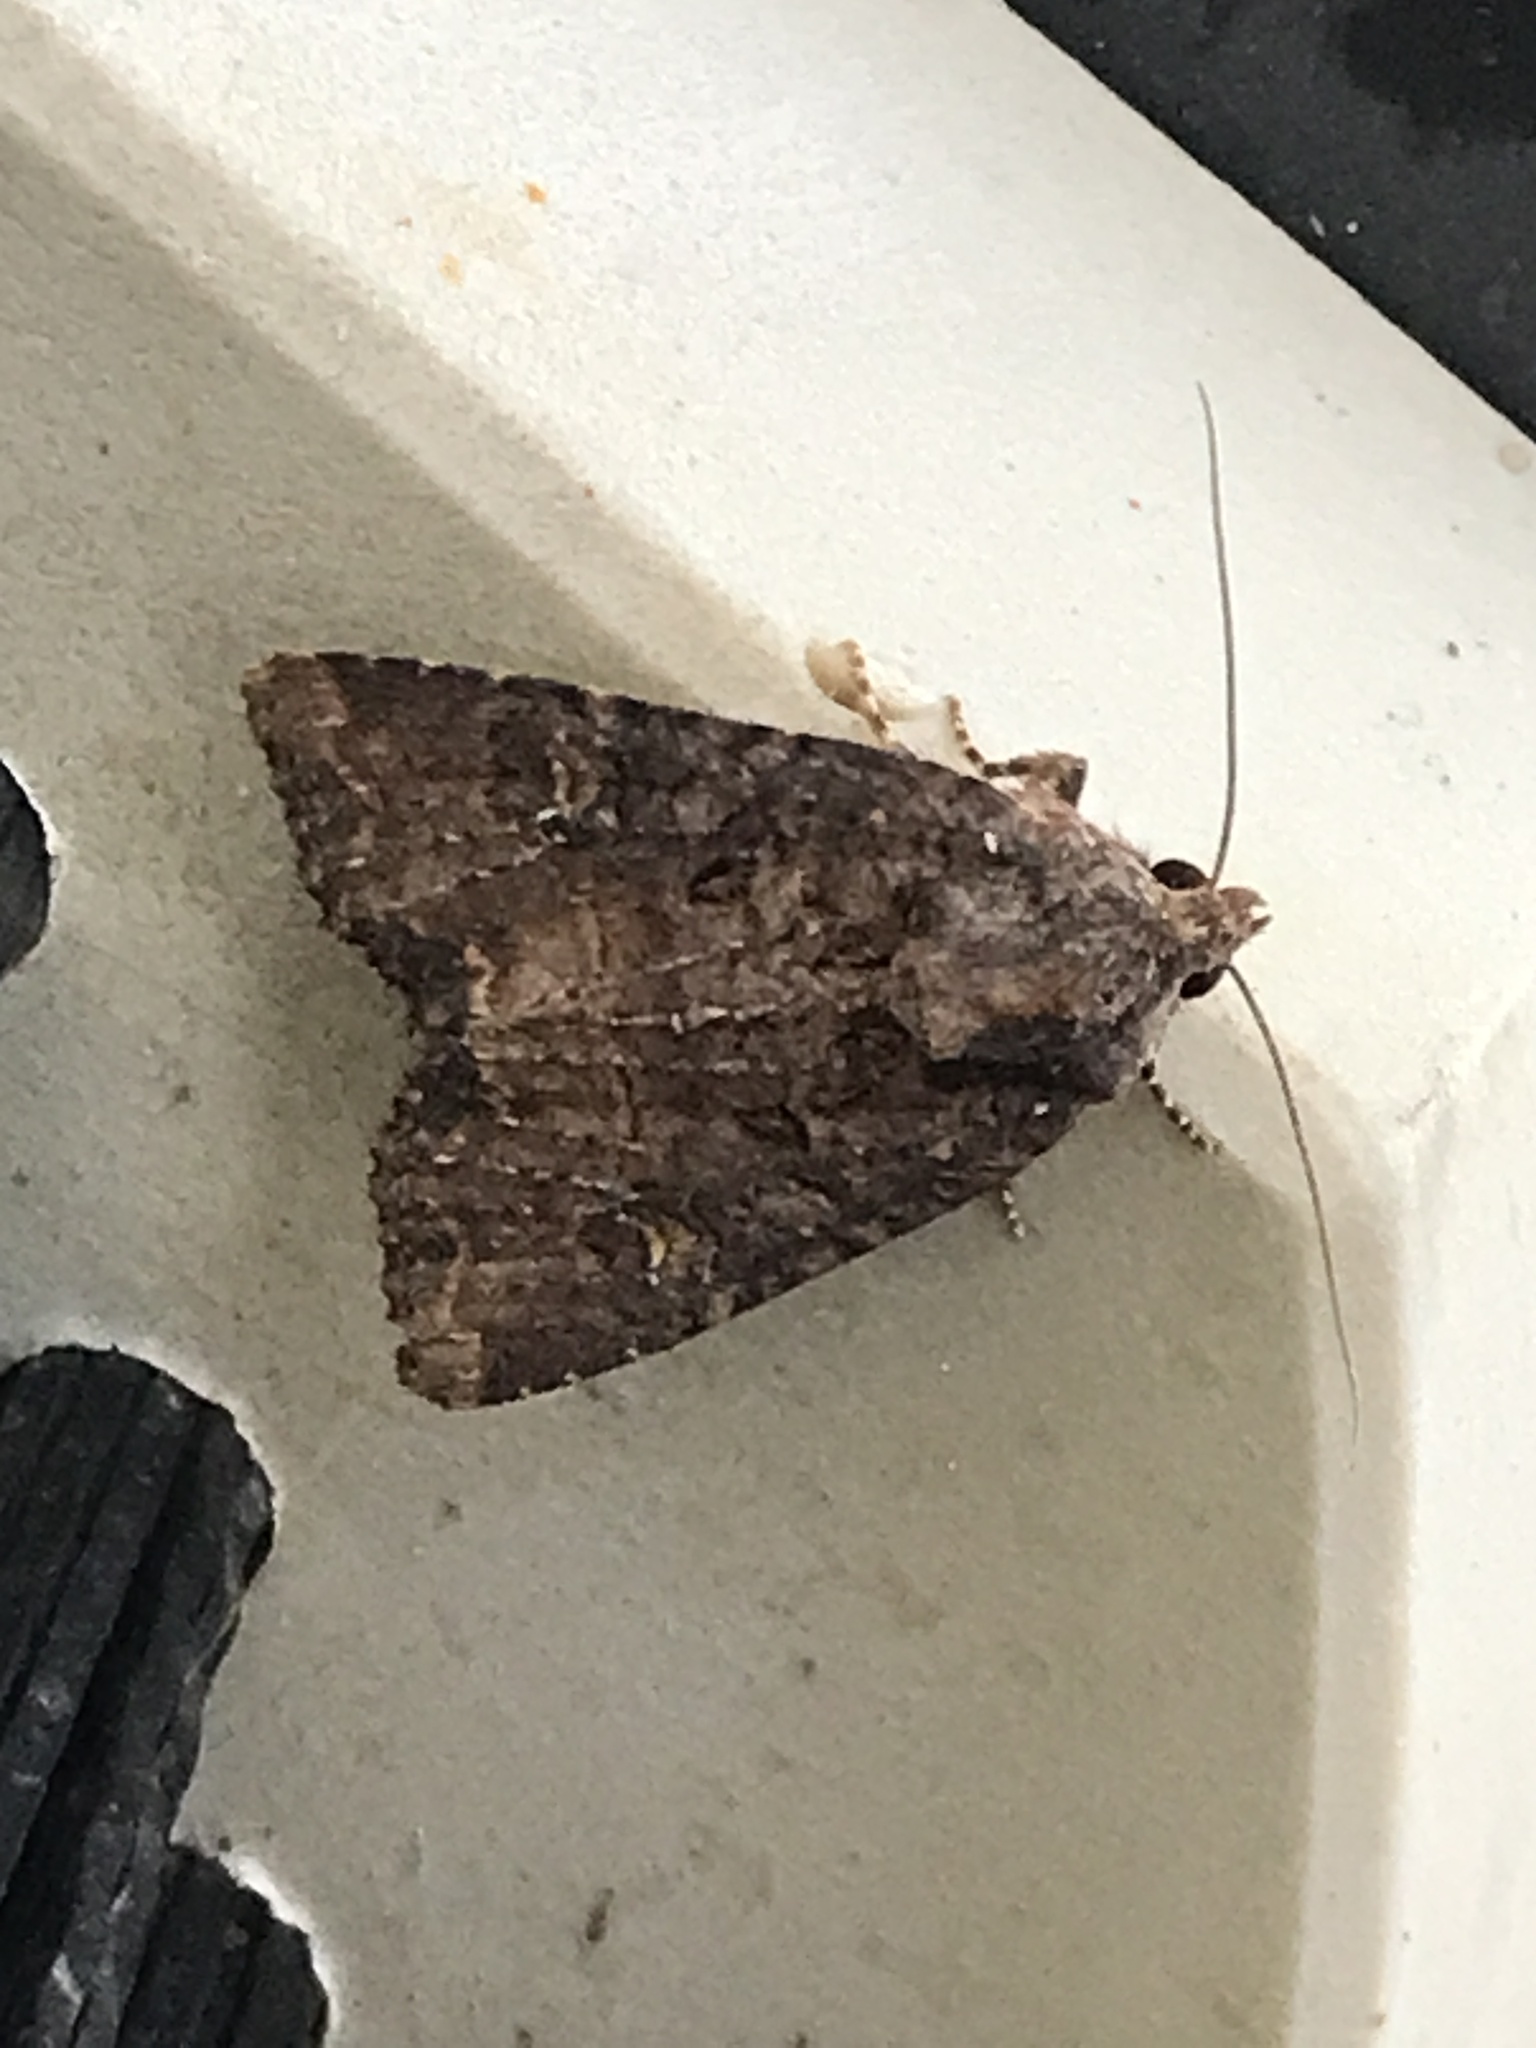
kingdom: Animalia
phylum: Arthropoda
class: Insecta
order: Lepidoptera
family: Noctuidae
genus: Mesapamea
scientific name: Mesapamea
